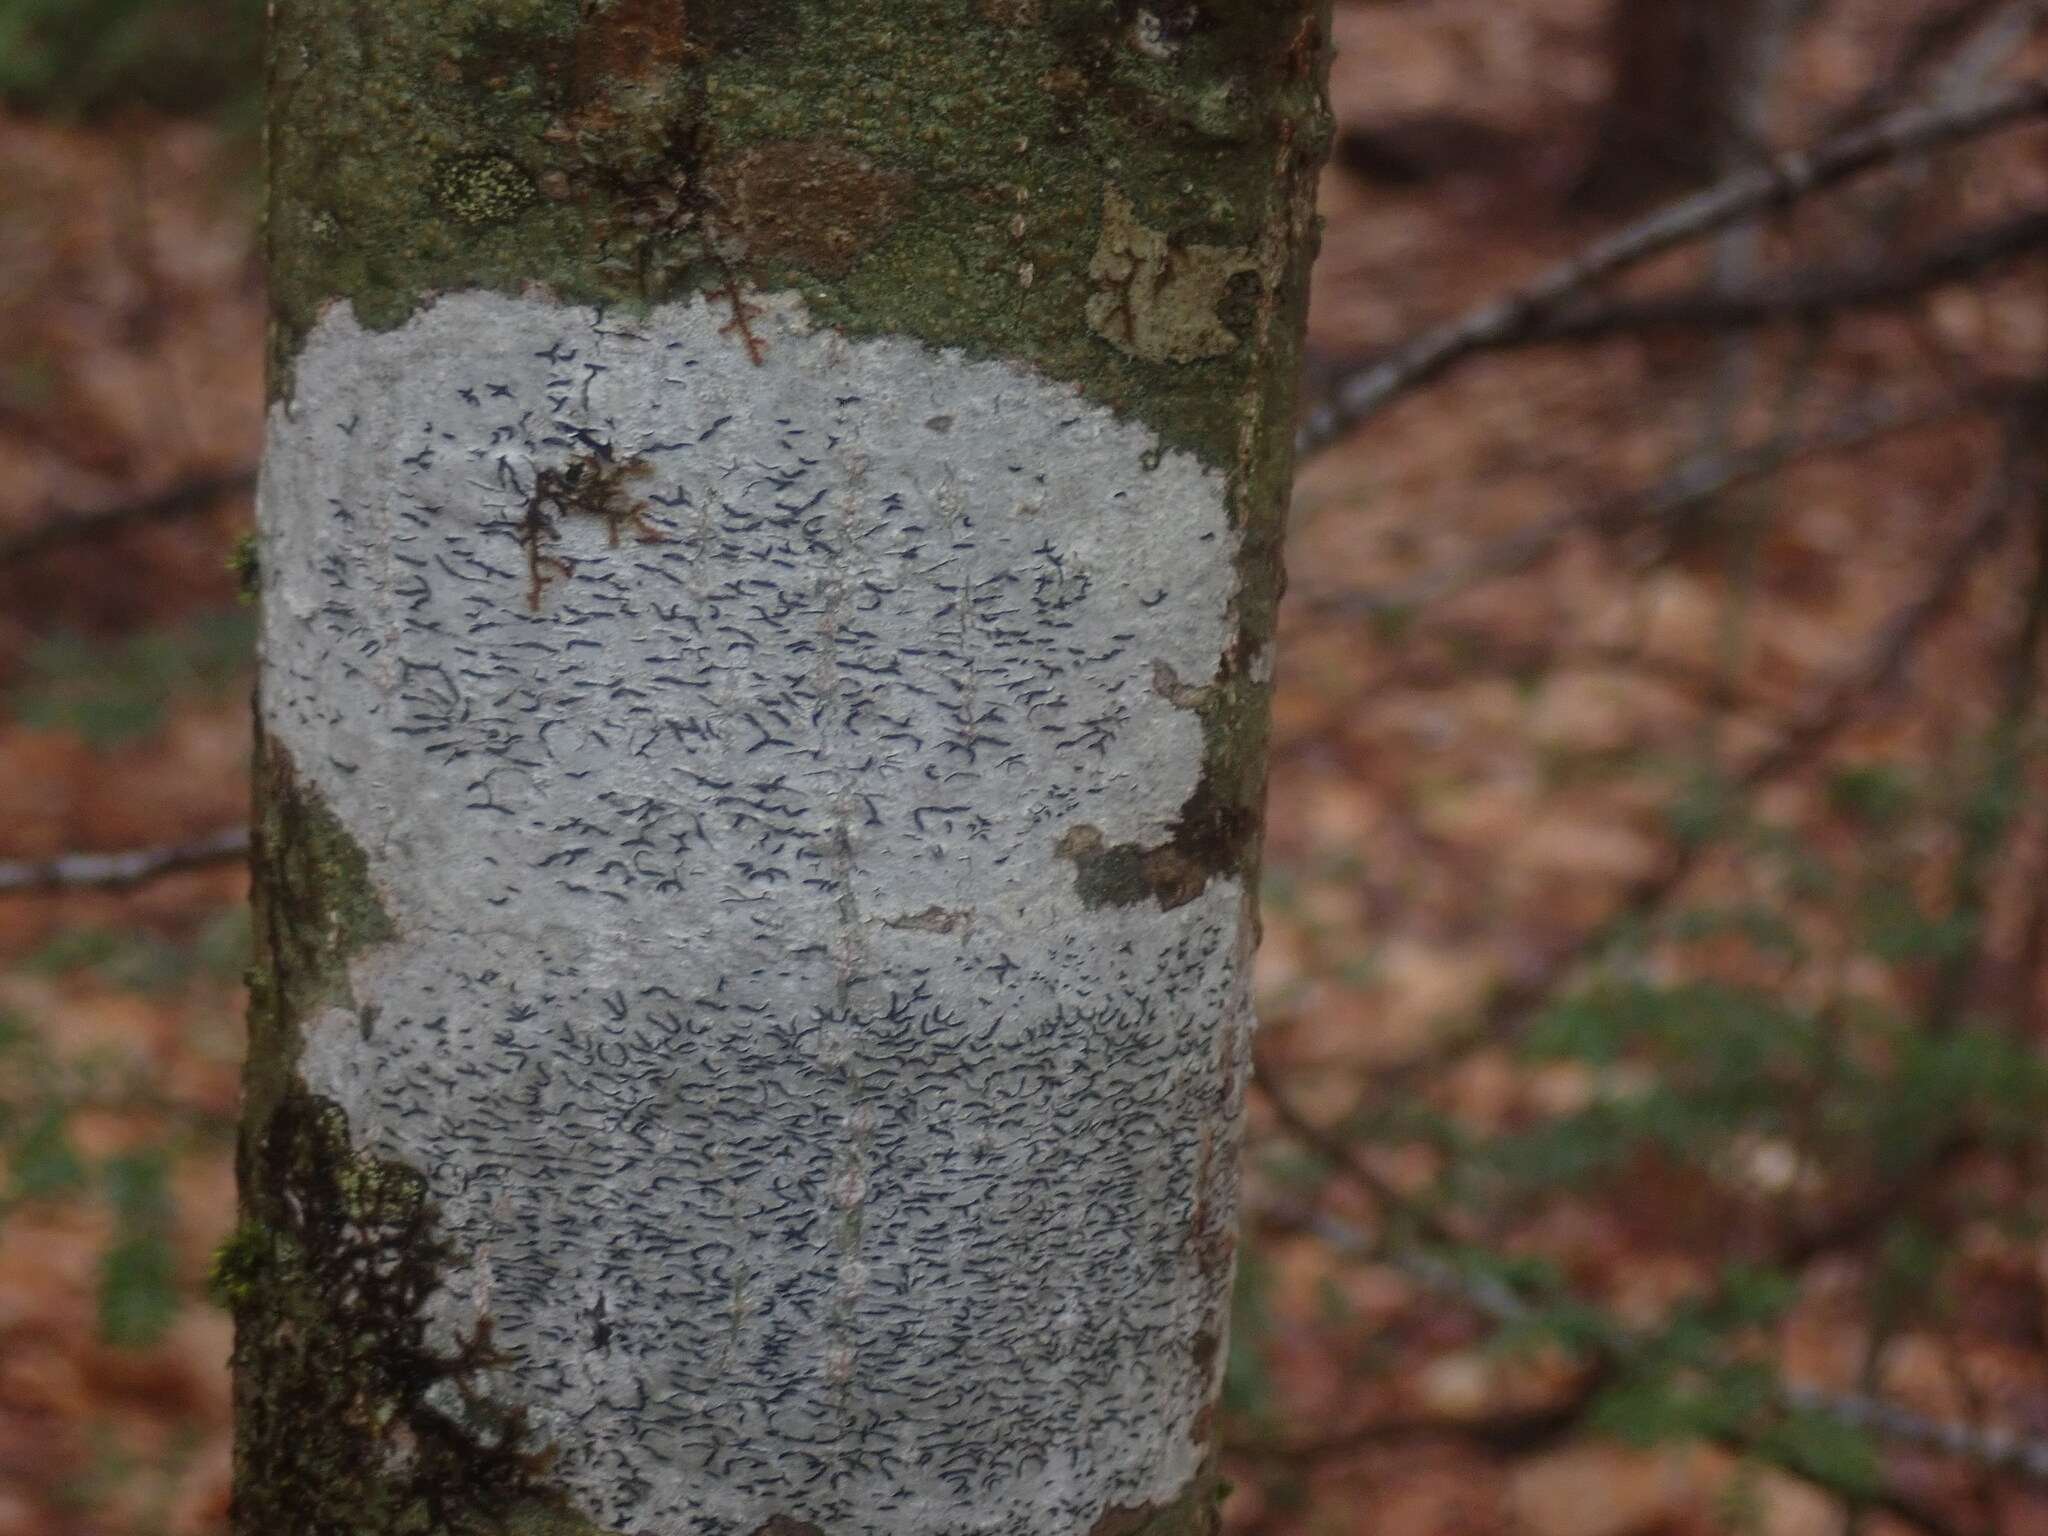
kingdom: Fungi
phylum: Ascomycota
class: Lecanoromycetes
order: Ostropales
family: Graphidaceae
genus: Graphis
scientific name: Graphis scripta
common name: Script lichen
